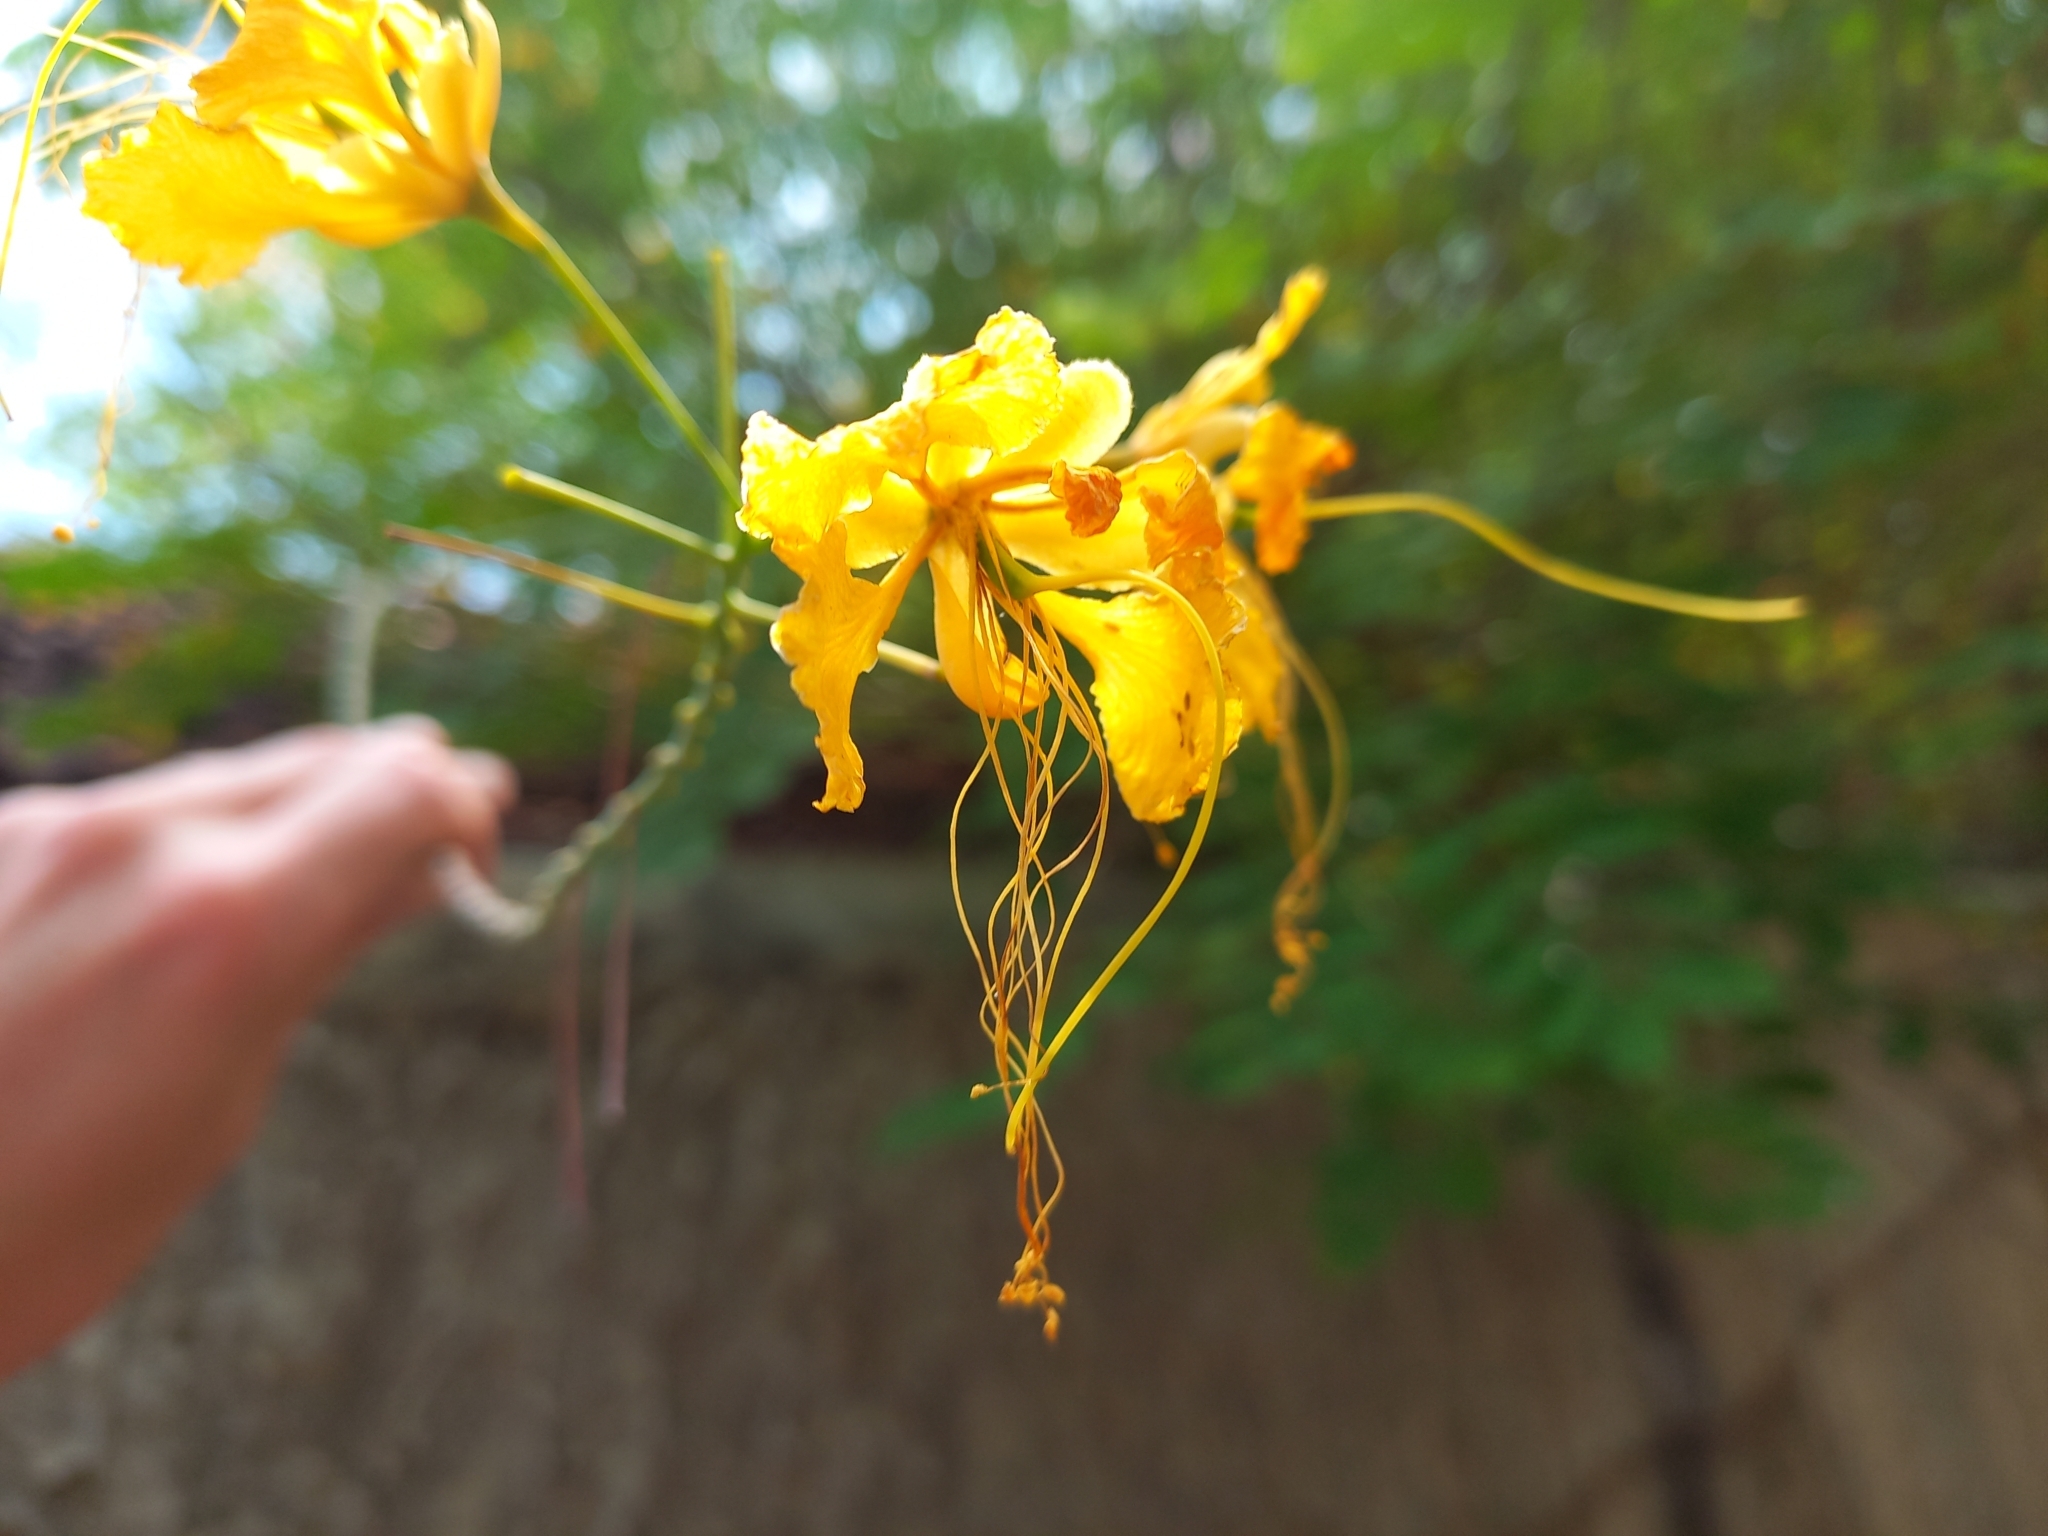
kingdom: Plantae
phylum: Tracheophyta
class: Magnoliopsida
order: Fabales
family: Fabaceae
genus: Caesalpinia
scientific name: Caesalpinia pulcherrima
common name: Pride-of-barbados
